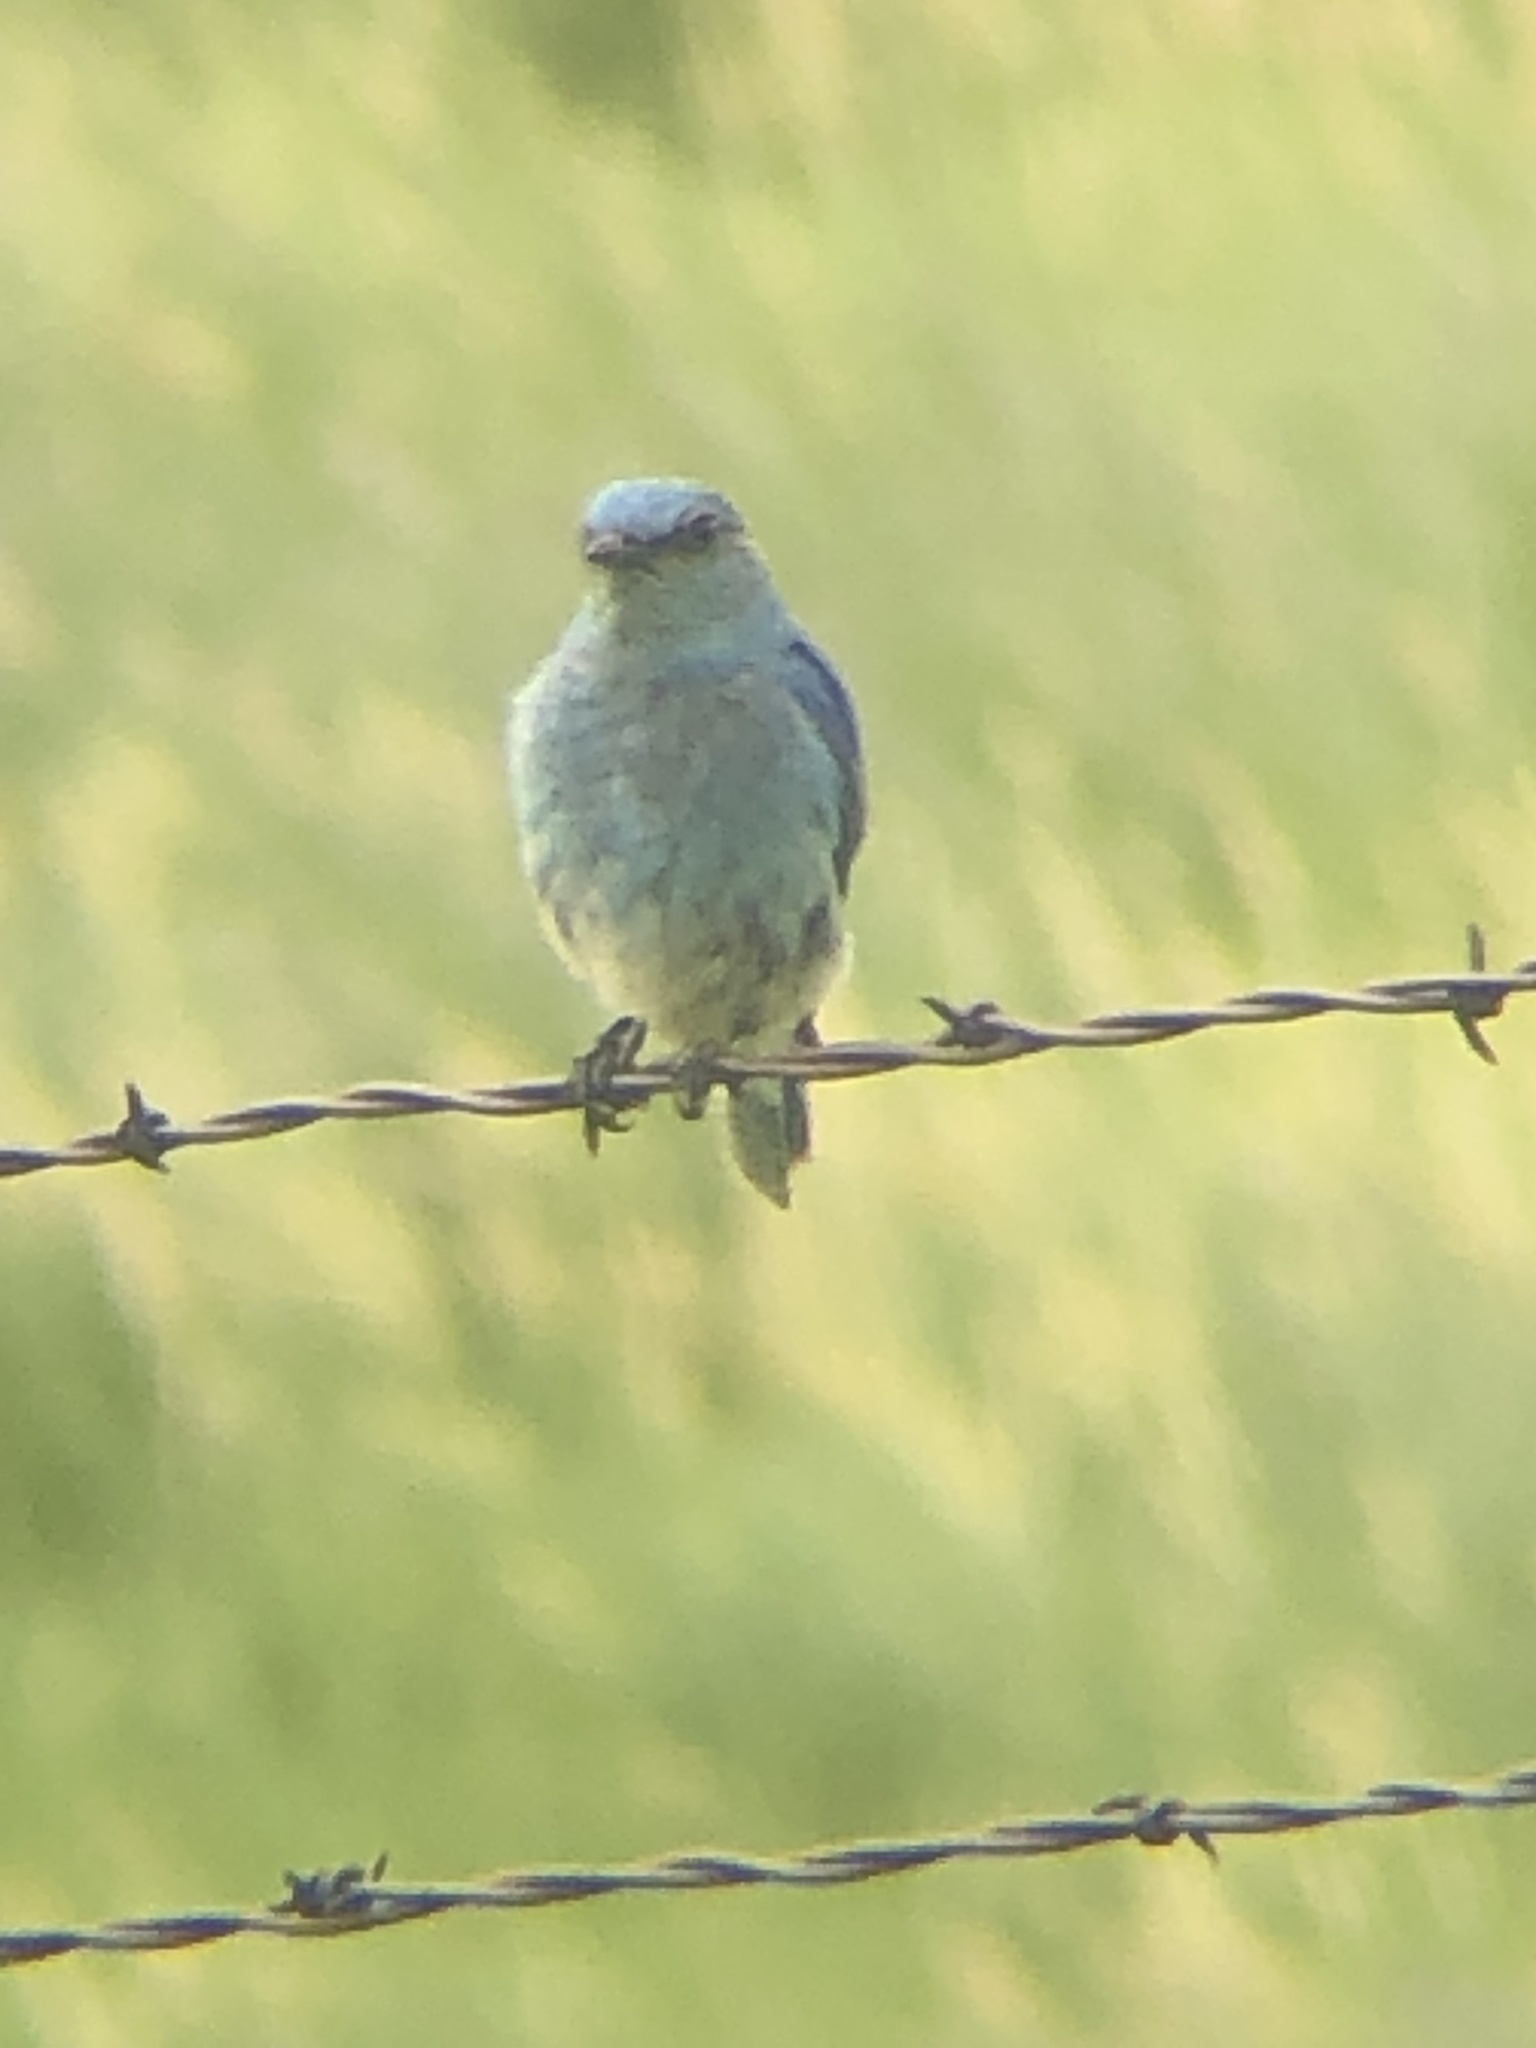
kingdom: Animalia
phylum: Chordata
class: Aves
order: Passeriformes
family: Turdidae
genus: Sialia
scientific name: Sialia currucoides
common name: Mountain bluebird
